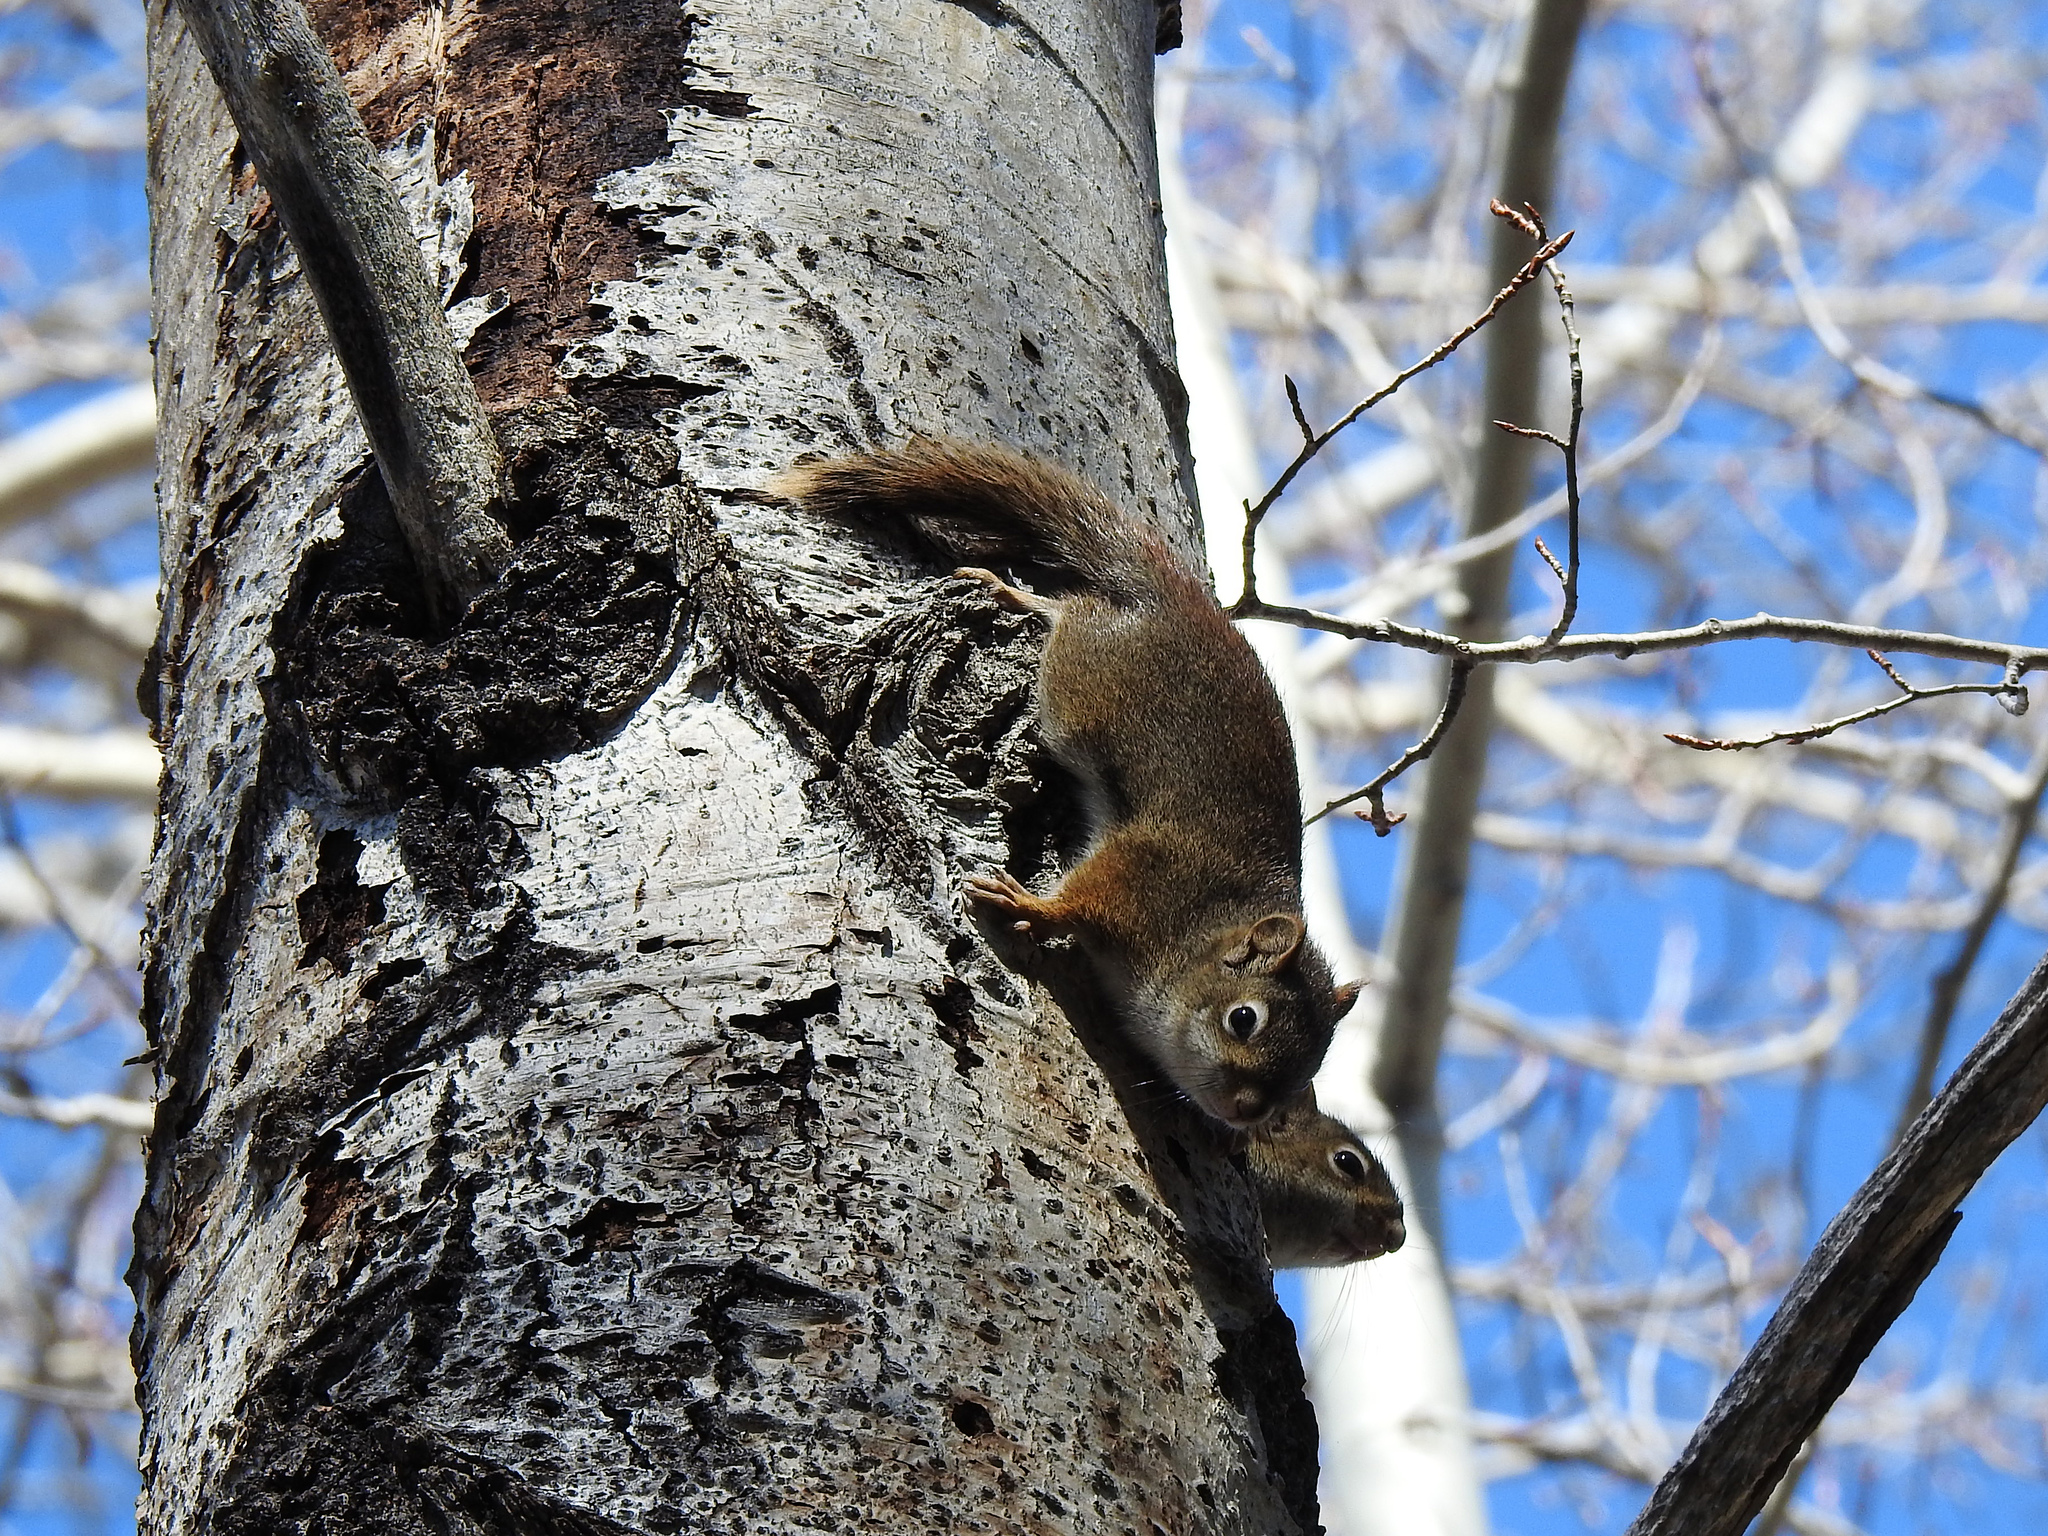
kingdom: Animalia
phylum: Chordata
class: Mammalia
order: Rodentia
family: Sciuridae
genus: Tamiasciurus
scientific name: Tamiasciurus hudsonicus
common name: Red squirrel
